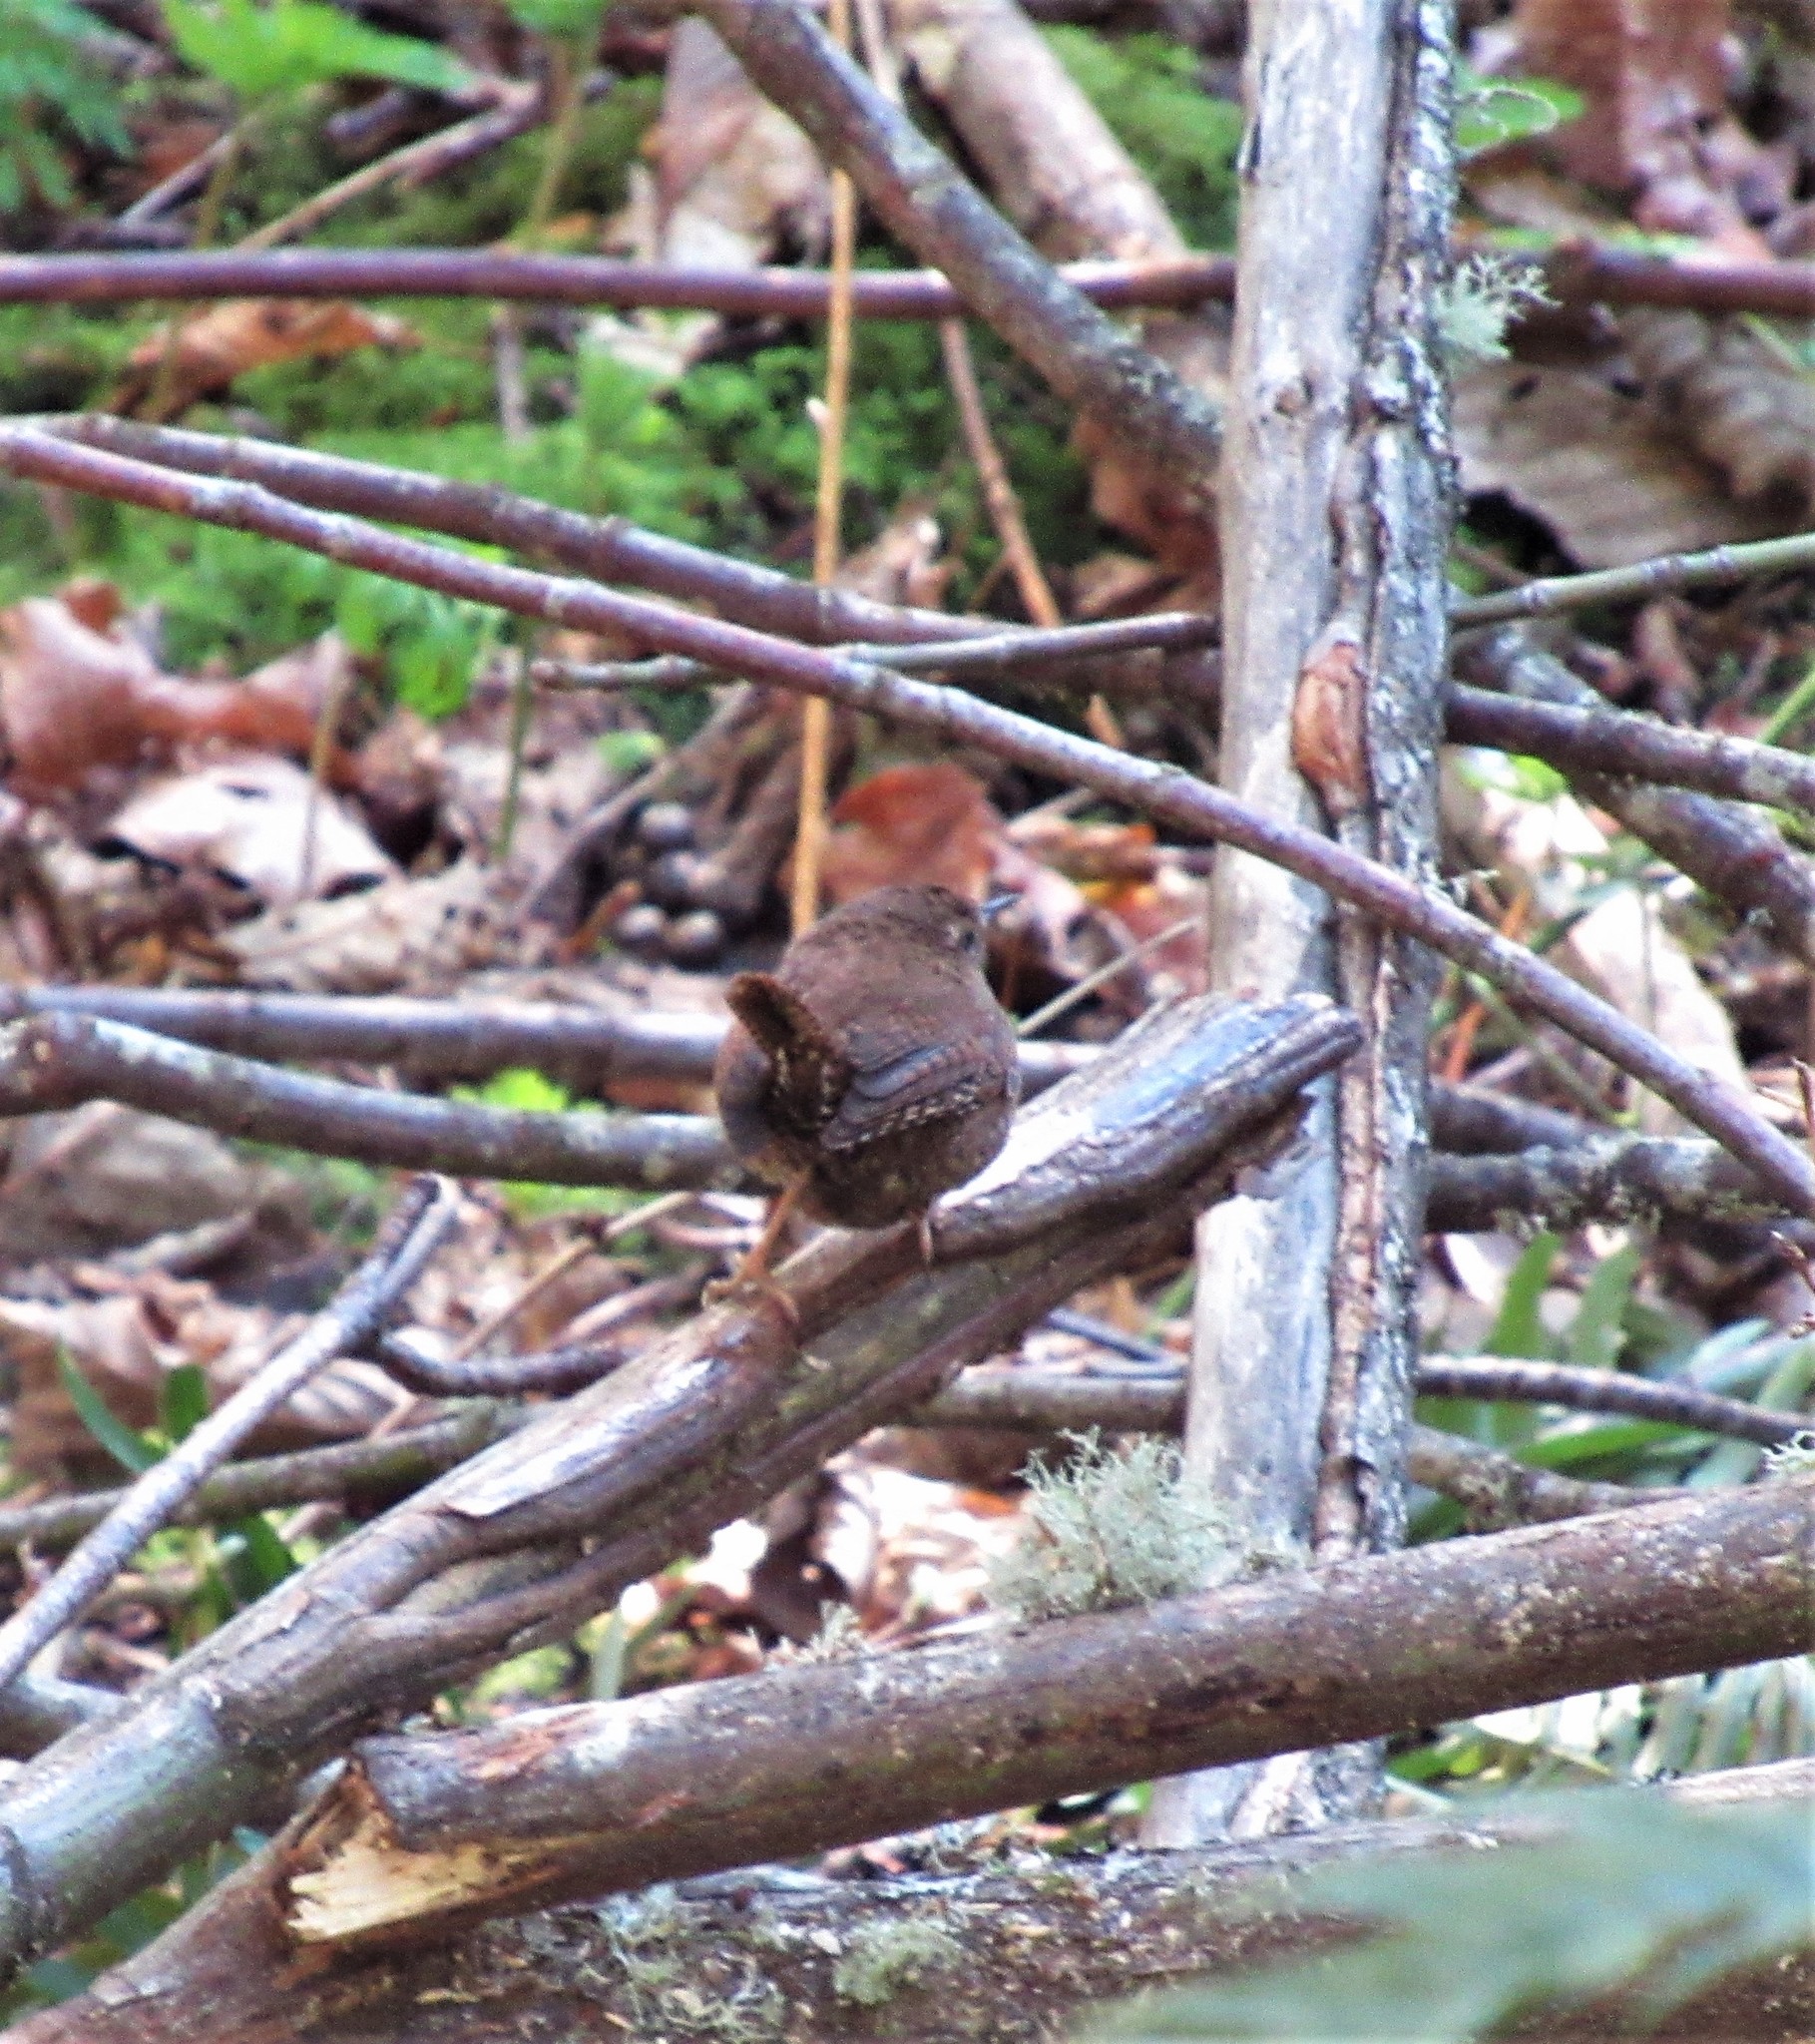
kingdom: Animalia
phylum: Chordata
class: Aves
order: Passeriformes
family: Troglodytidae
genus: Troglodytes
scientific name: Troglodytes pacificus
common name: Pacific wren
